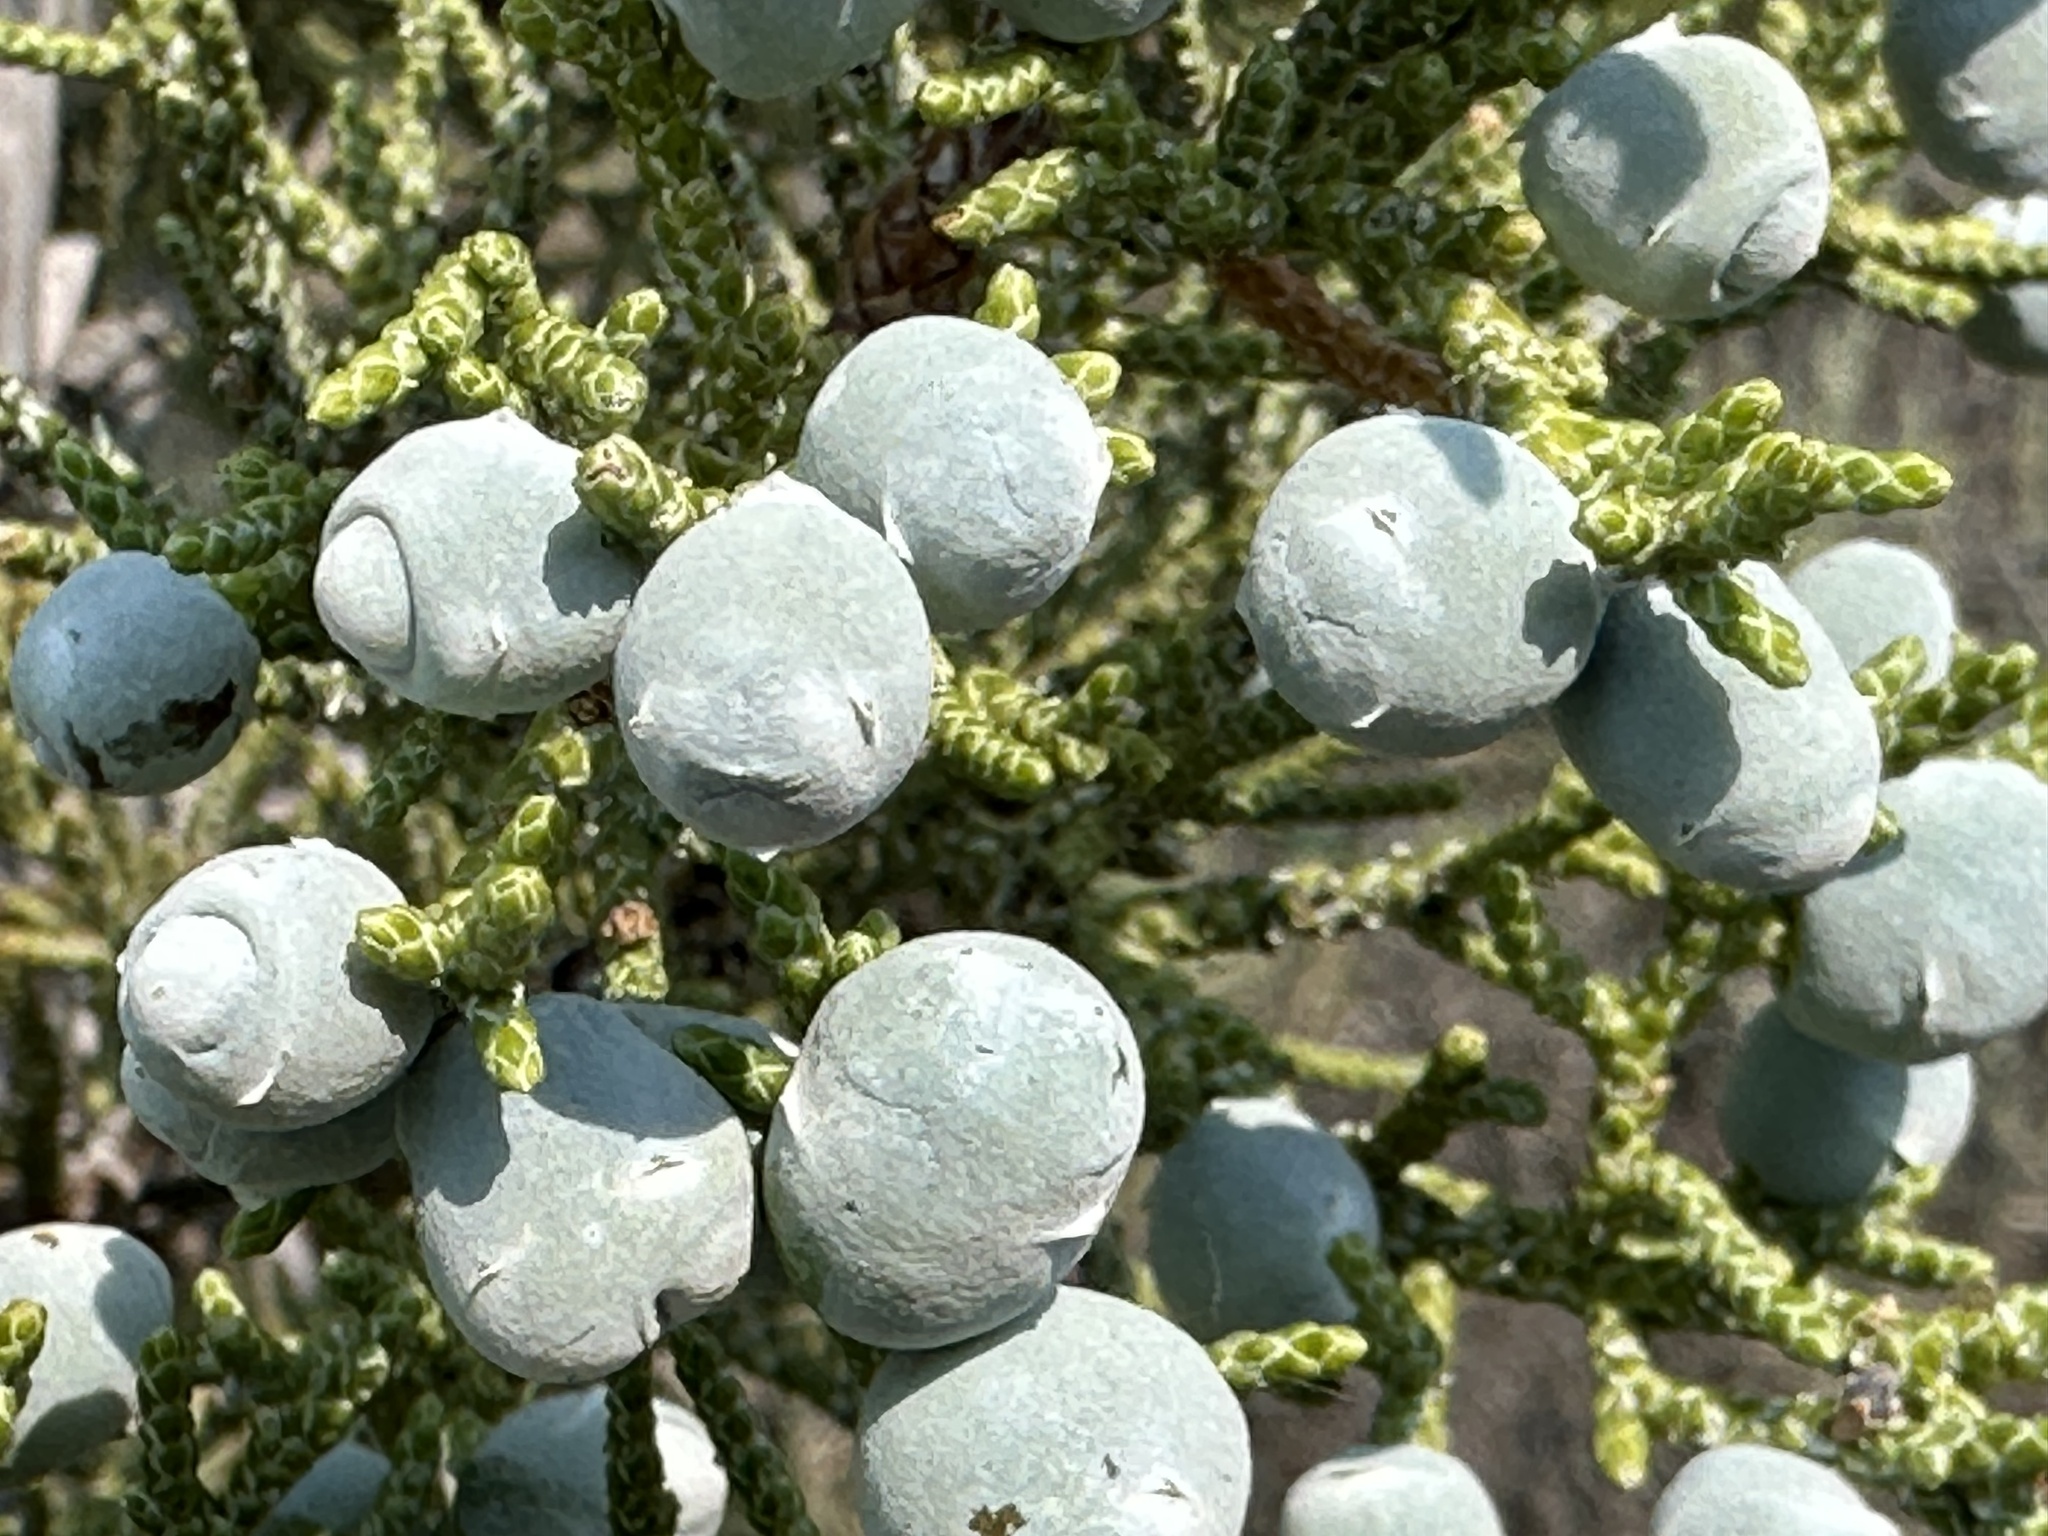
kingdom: Plantae
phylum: Tracheophyta
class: Pinopsida
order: Pinales
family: Cupressaceae
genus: Juniperus
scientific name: Juniperus occidentalis
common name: Western juniper
